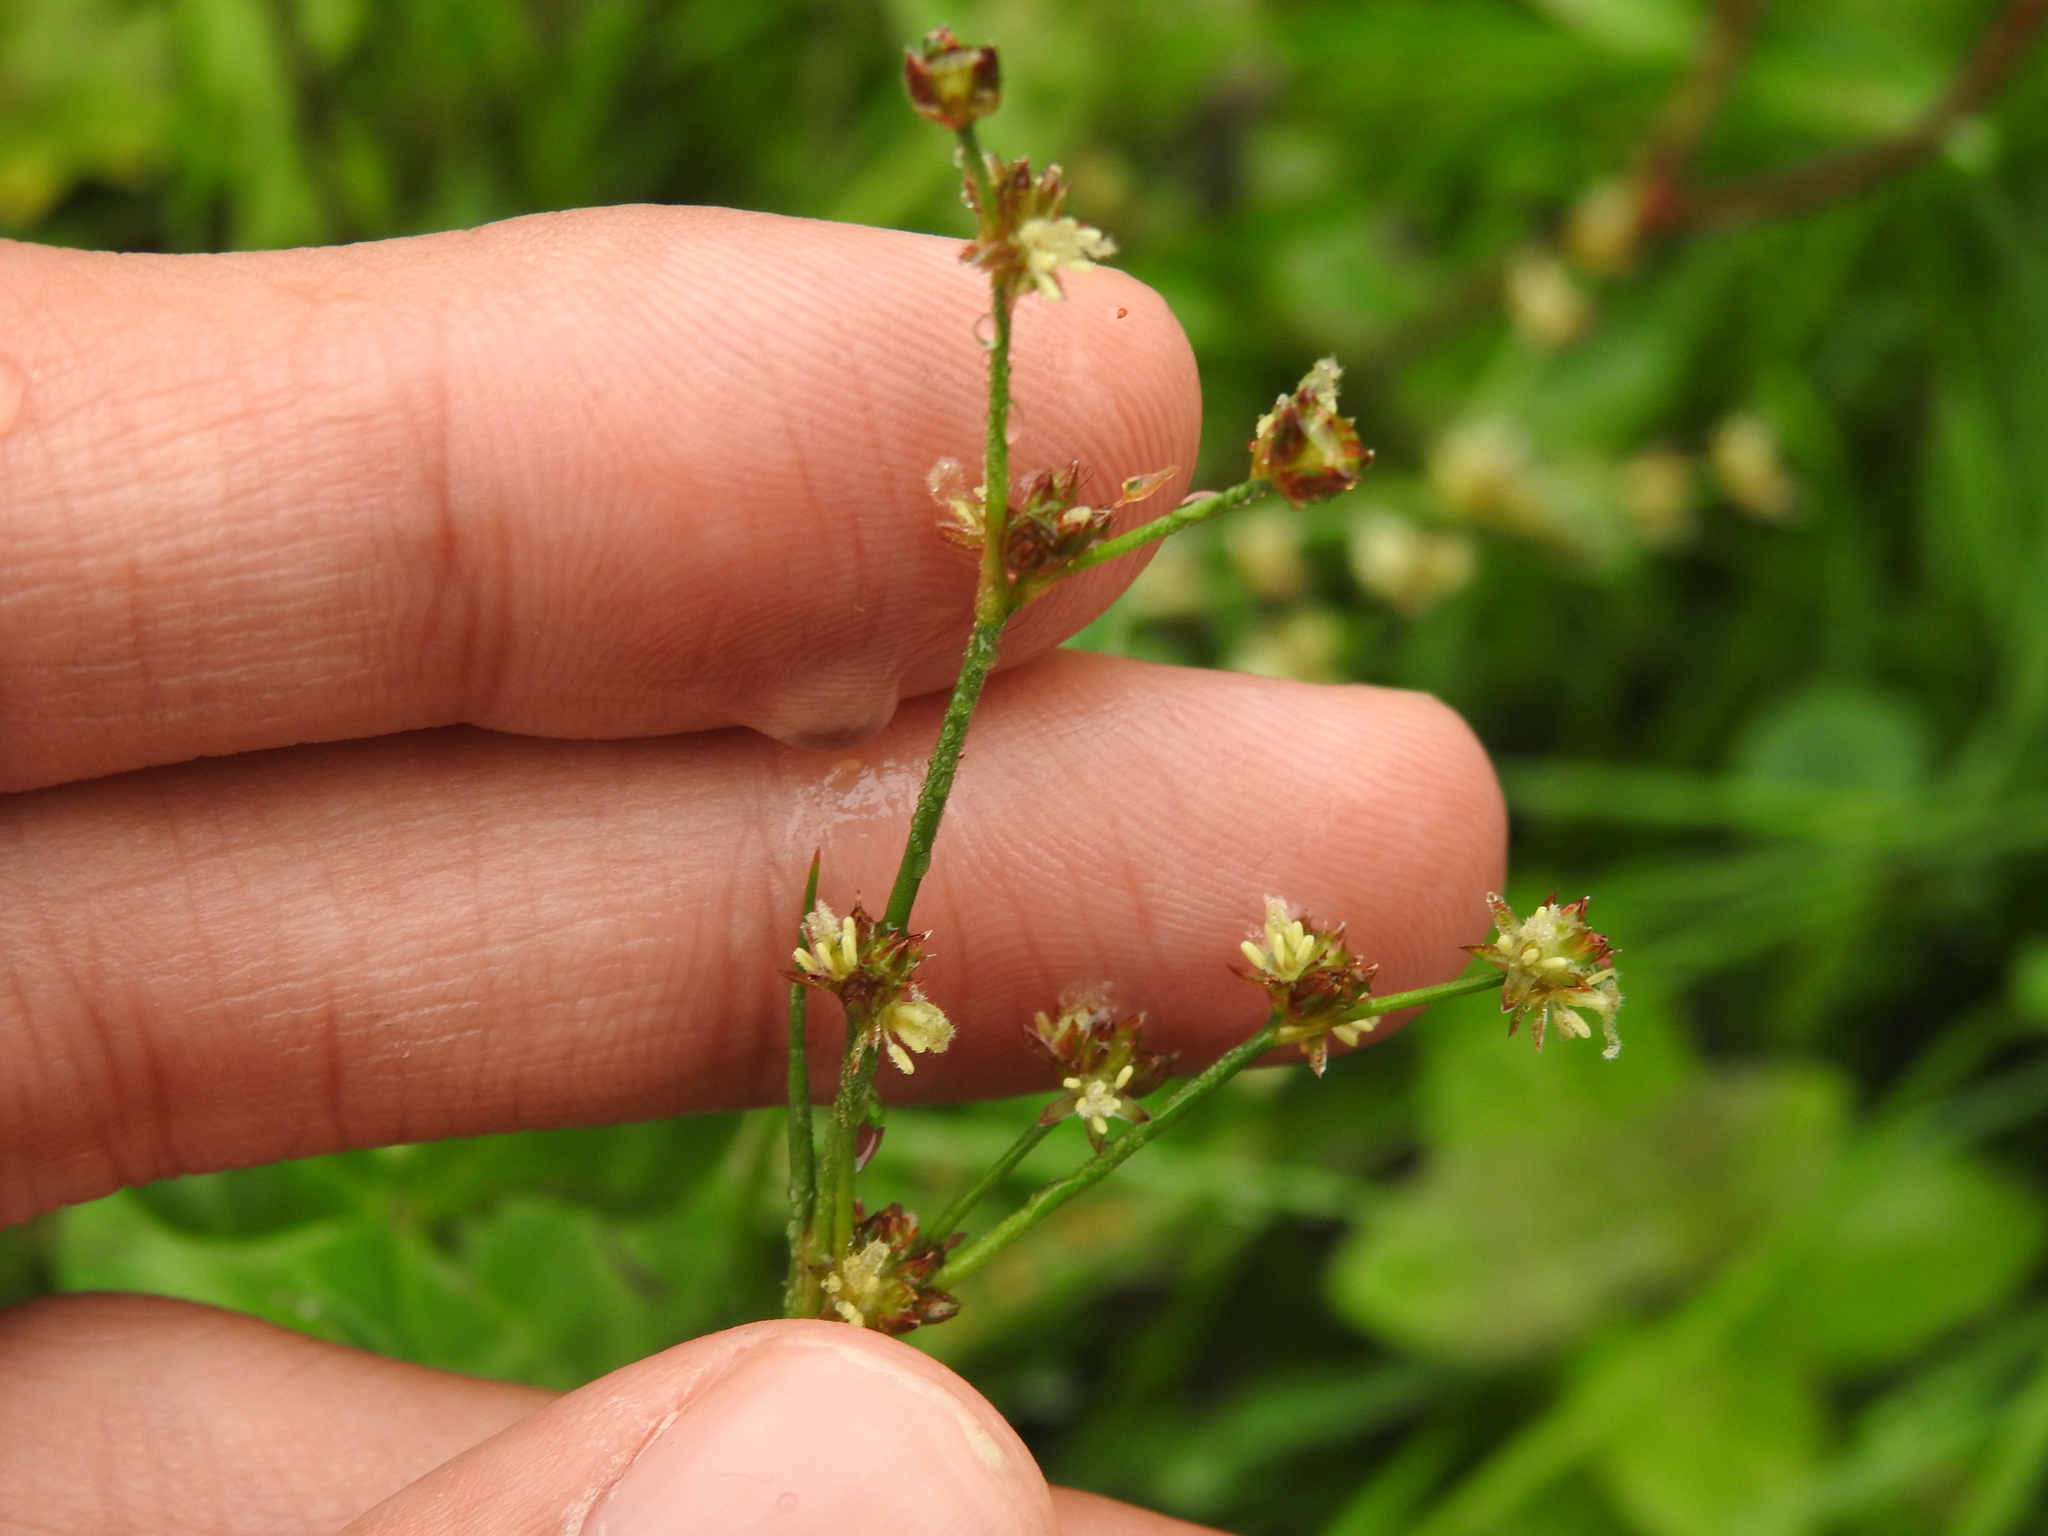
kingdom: Plantae
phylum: Tracheophyta
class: Liliopsida
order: Poales
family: Juncaceae
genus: Juncus
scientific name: Juncus articulatus
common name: Jointed rush
